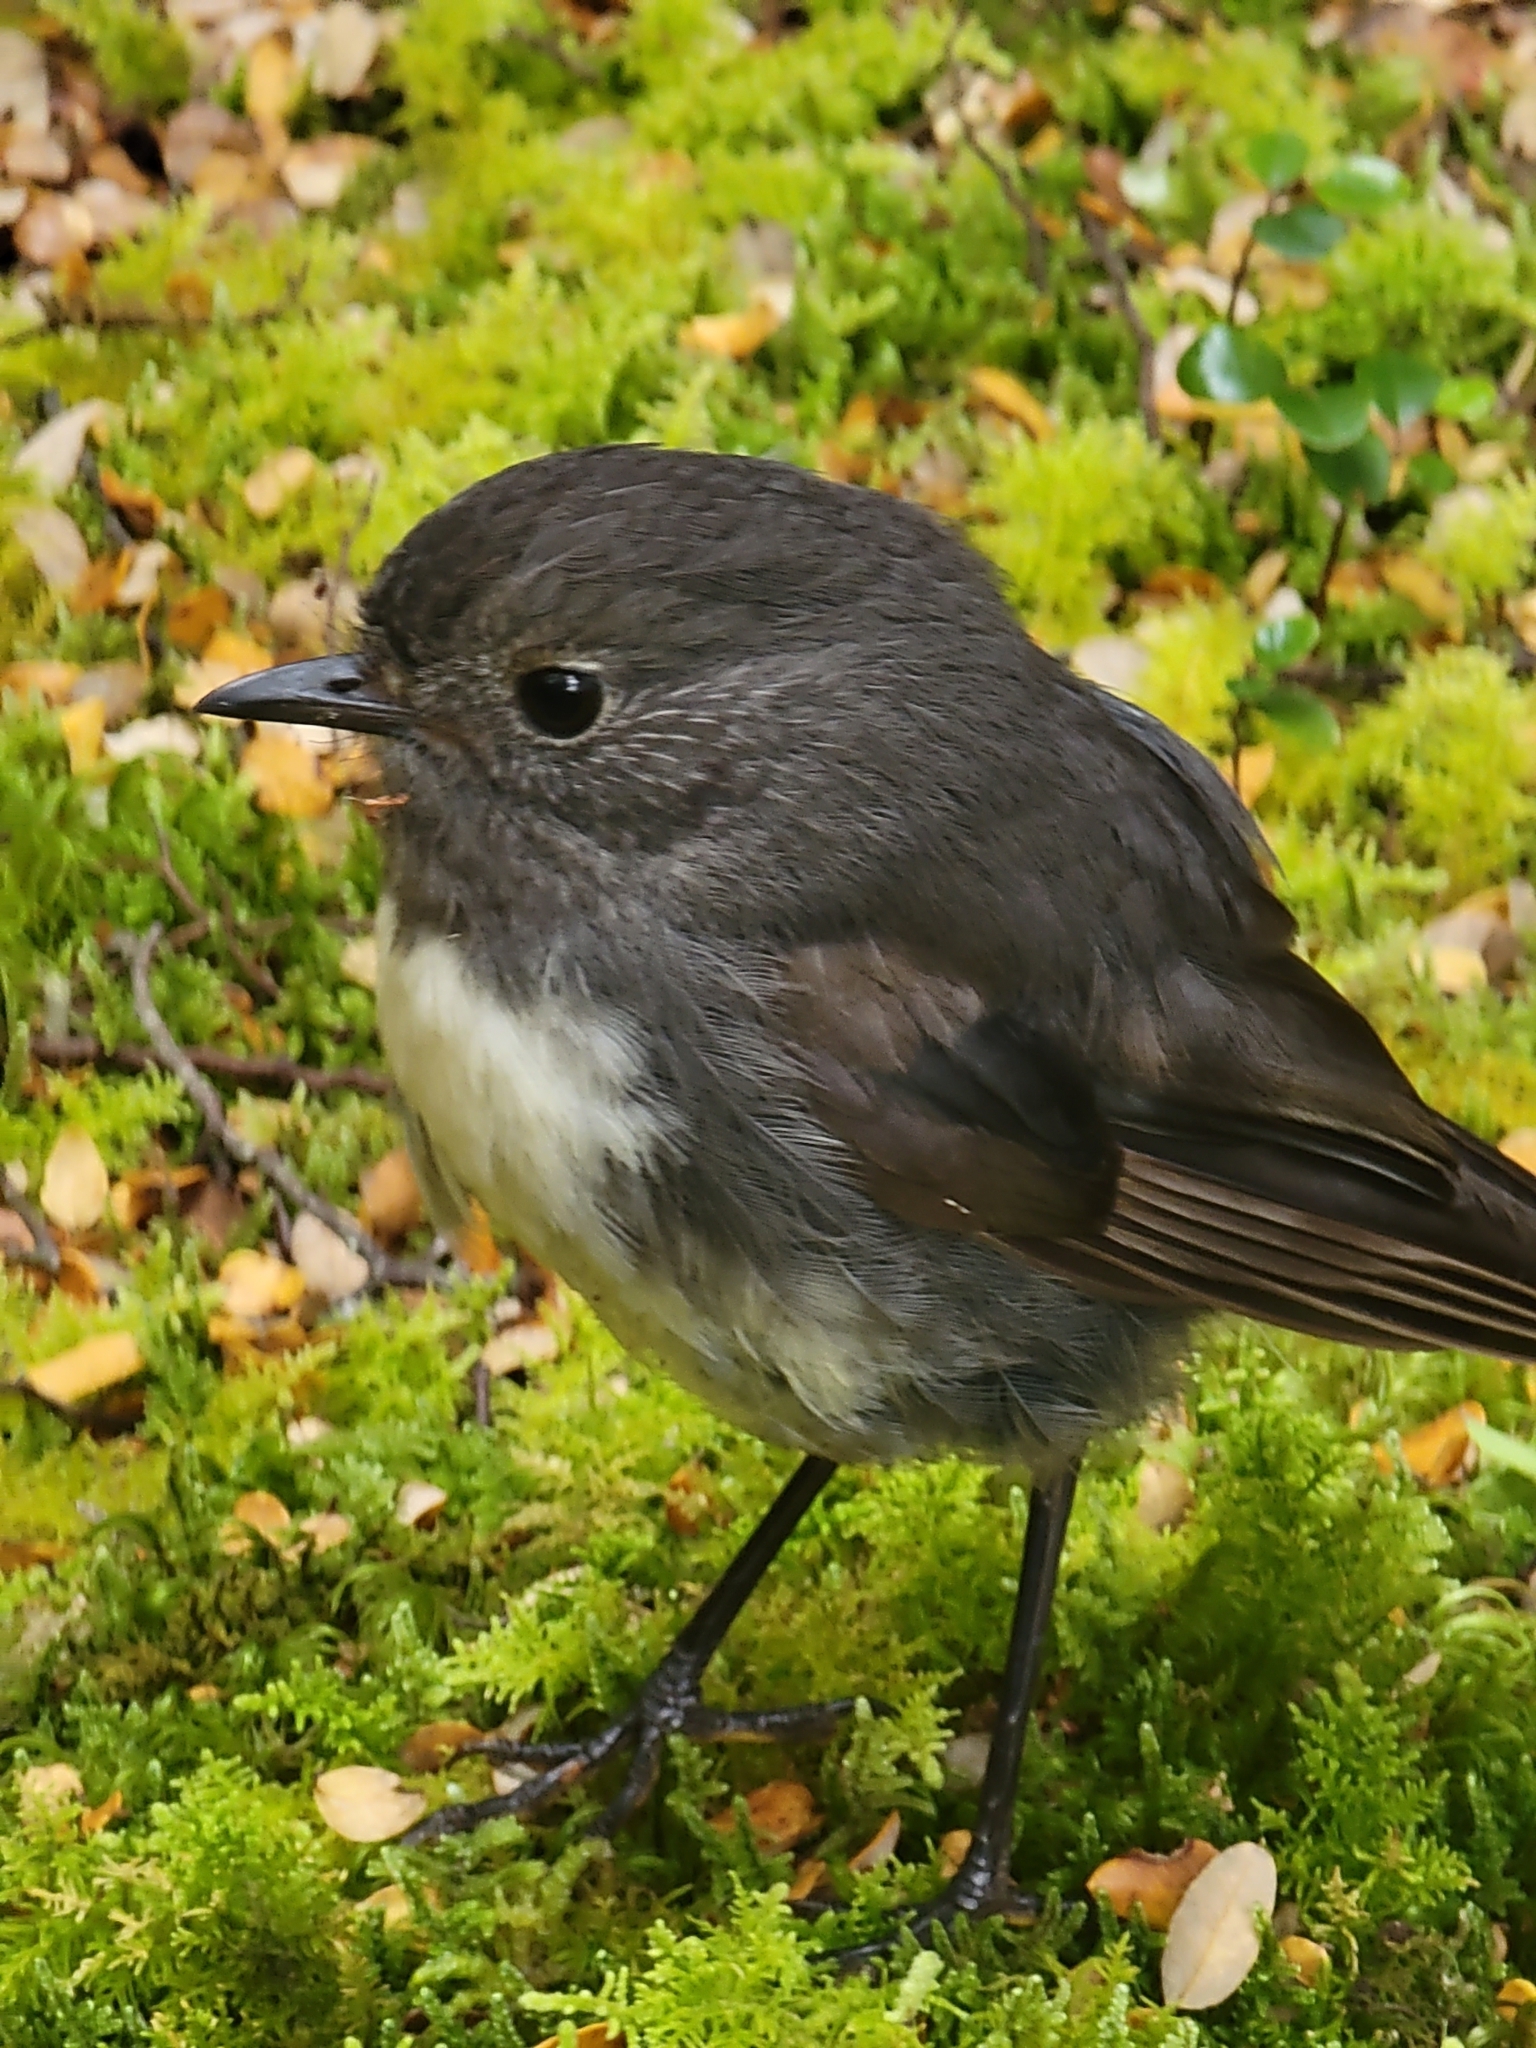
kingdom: Animalia
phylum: Chordata
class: Aves
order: Passeriformes
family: Petroicidae
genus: Petroica
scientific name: Petroica australis
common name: New zealand robin
